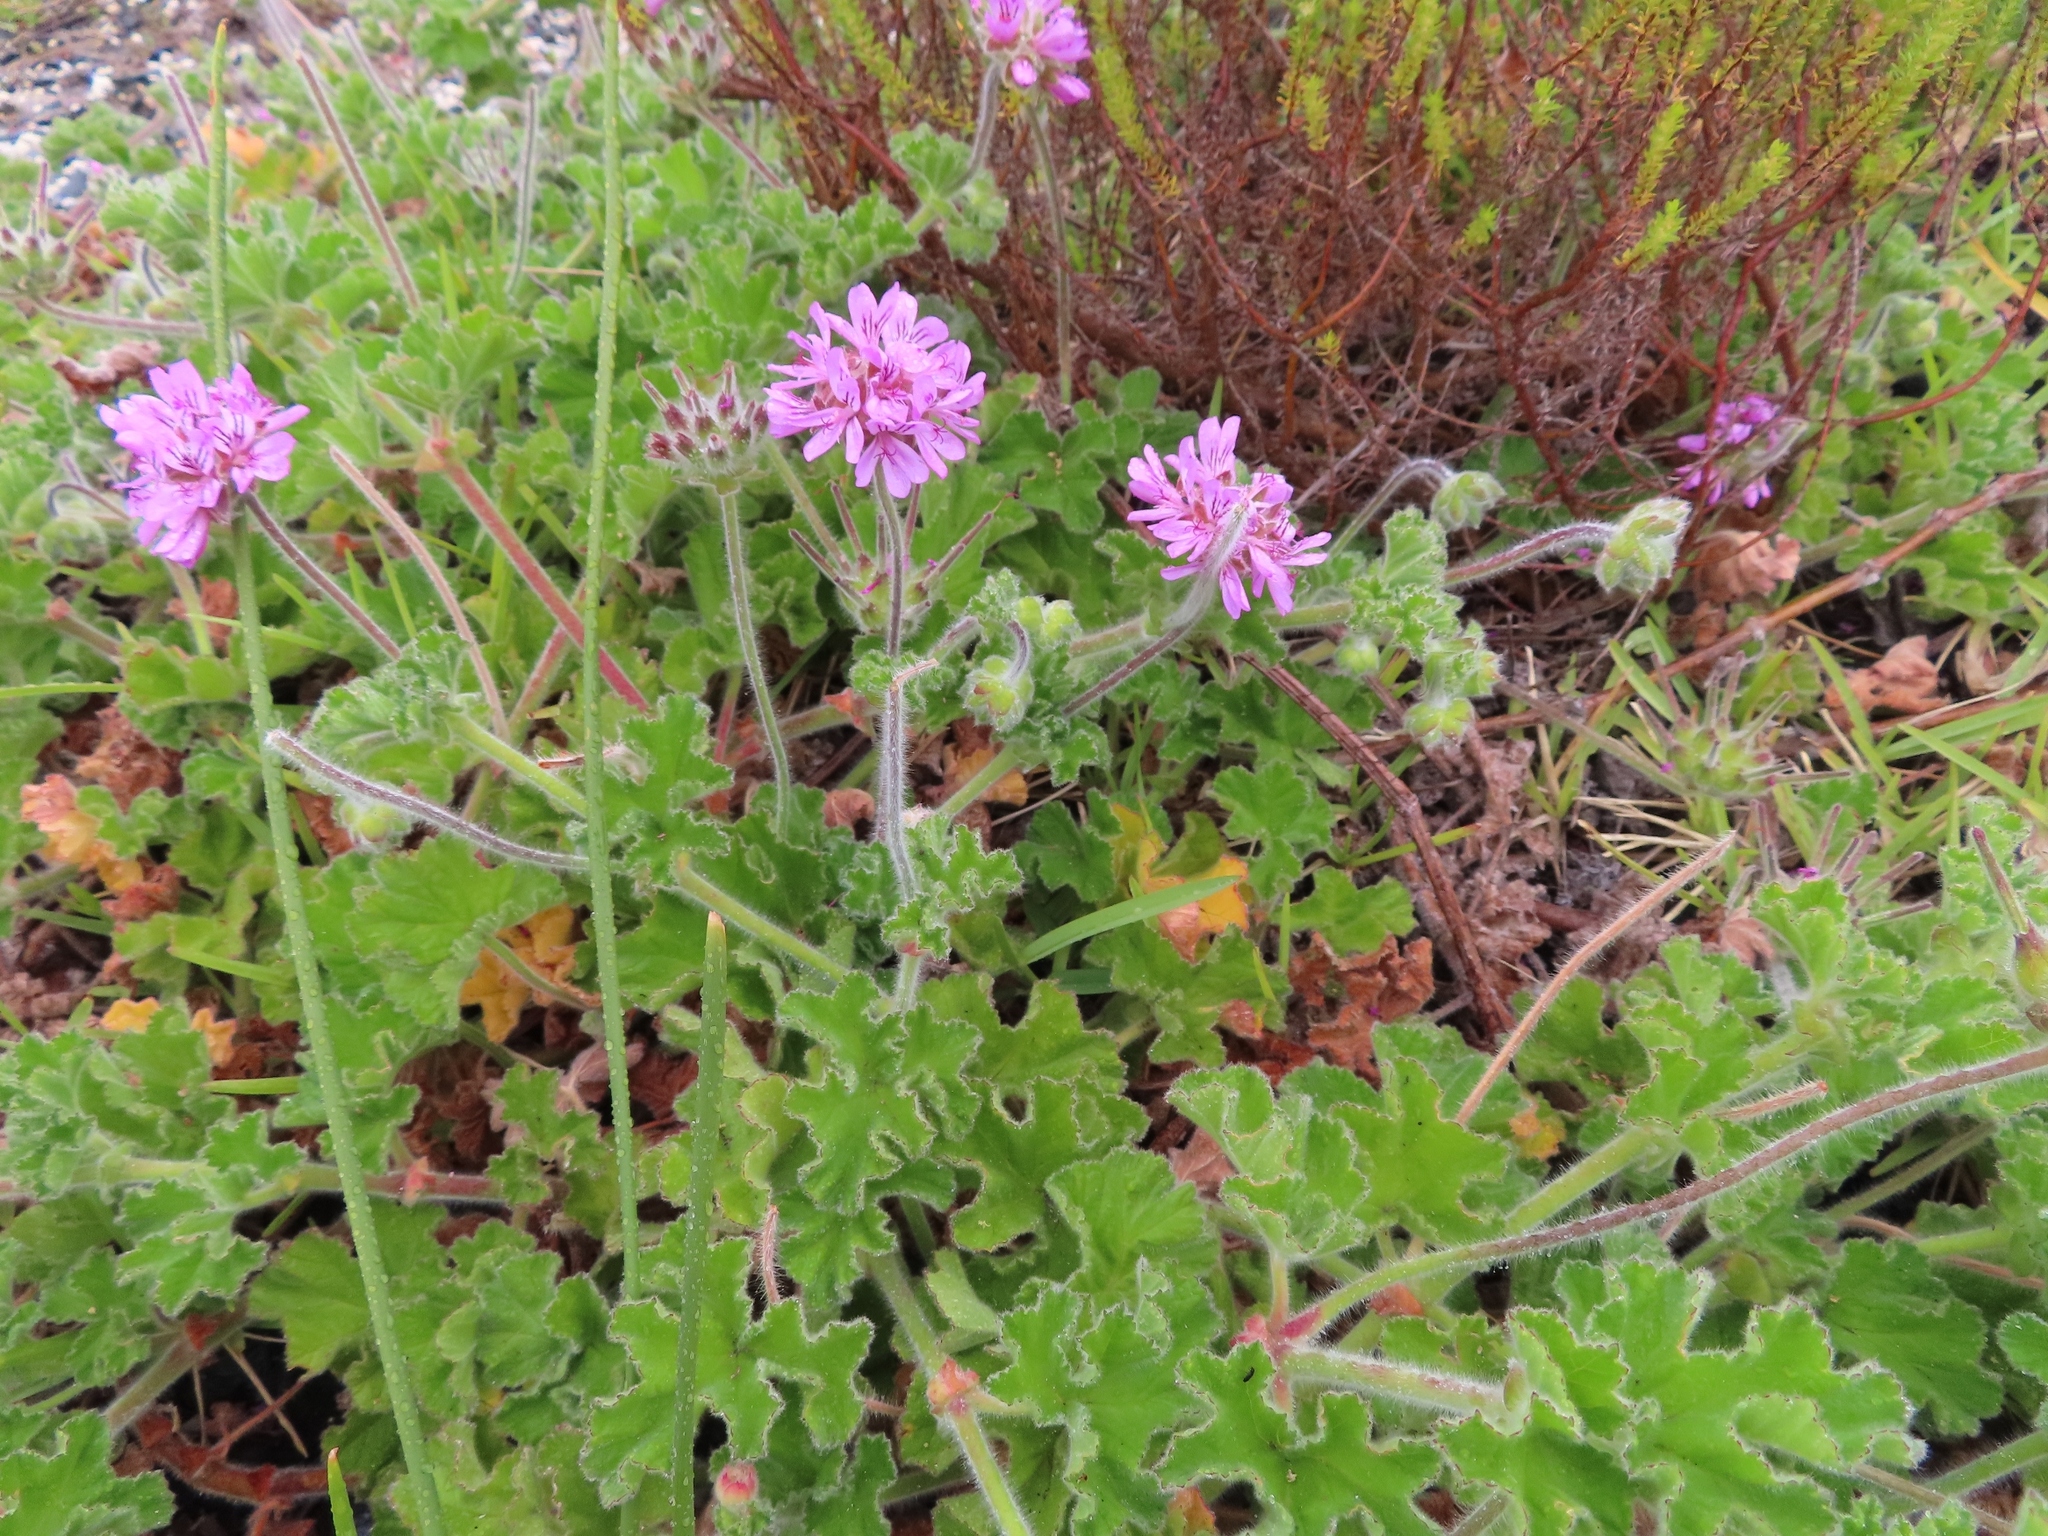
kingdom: Plantae
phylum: Tracheophyta
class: Magnoliopsida
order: Geraniales
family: Geraniaceae
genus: Pelargonium
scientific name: Pelargonium capitatum
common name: Rose scented geranium
